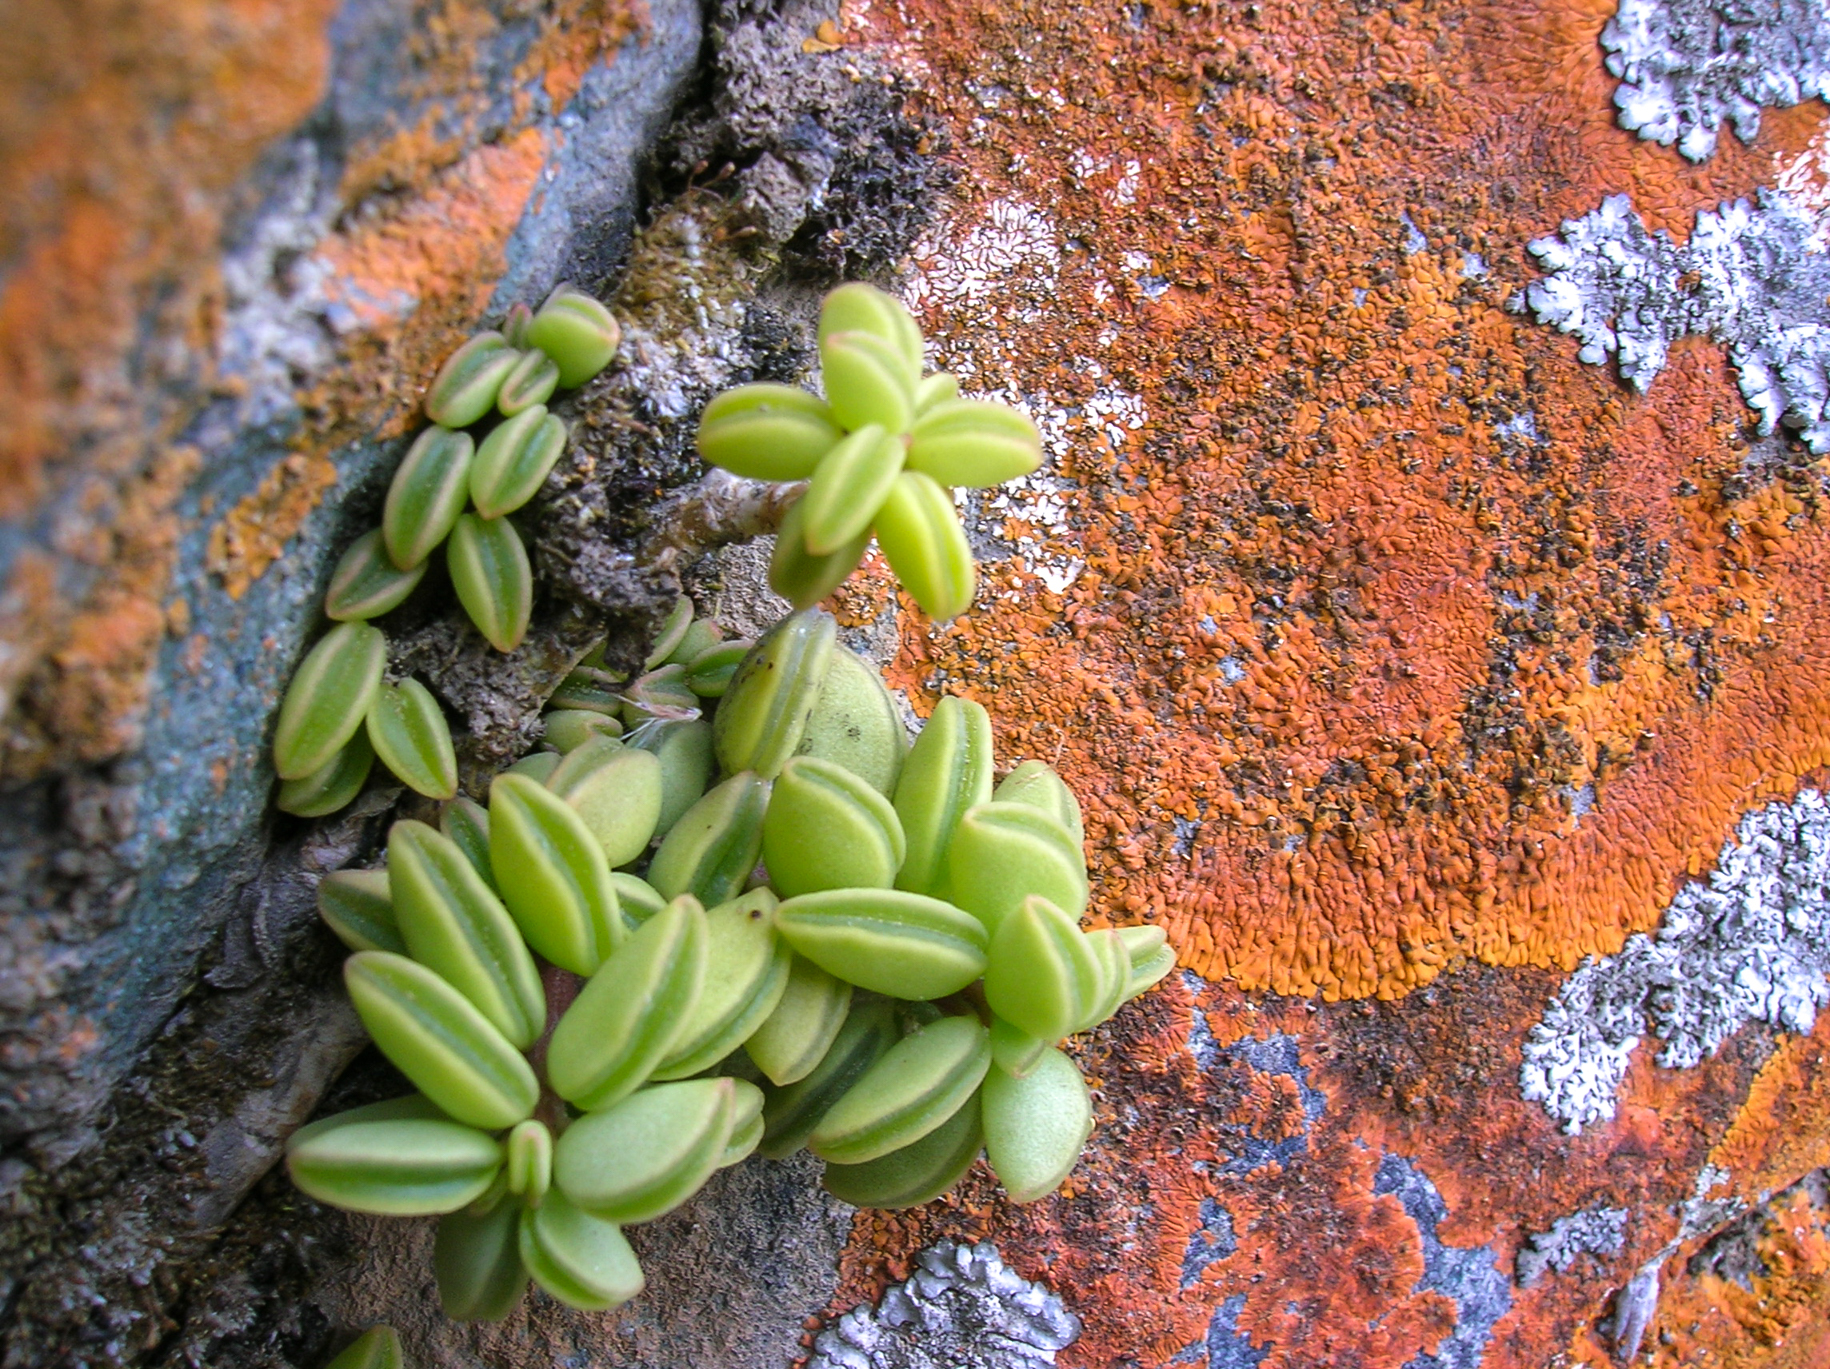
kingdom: Plantae
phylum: Tracheophyta
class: Magnoliopsida
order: Piperales
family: Piperaceae
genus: Peperomia
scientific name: Peperomia nivalis
